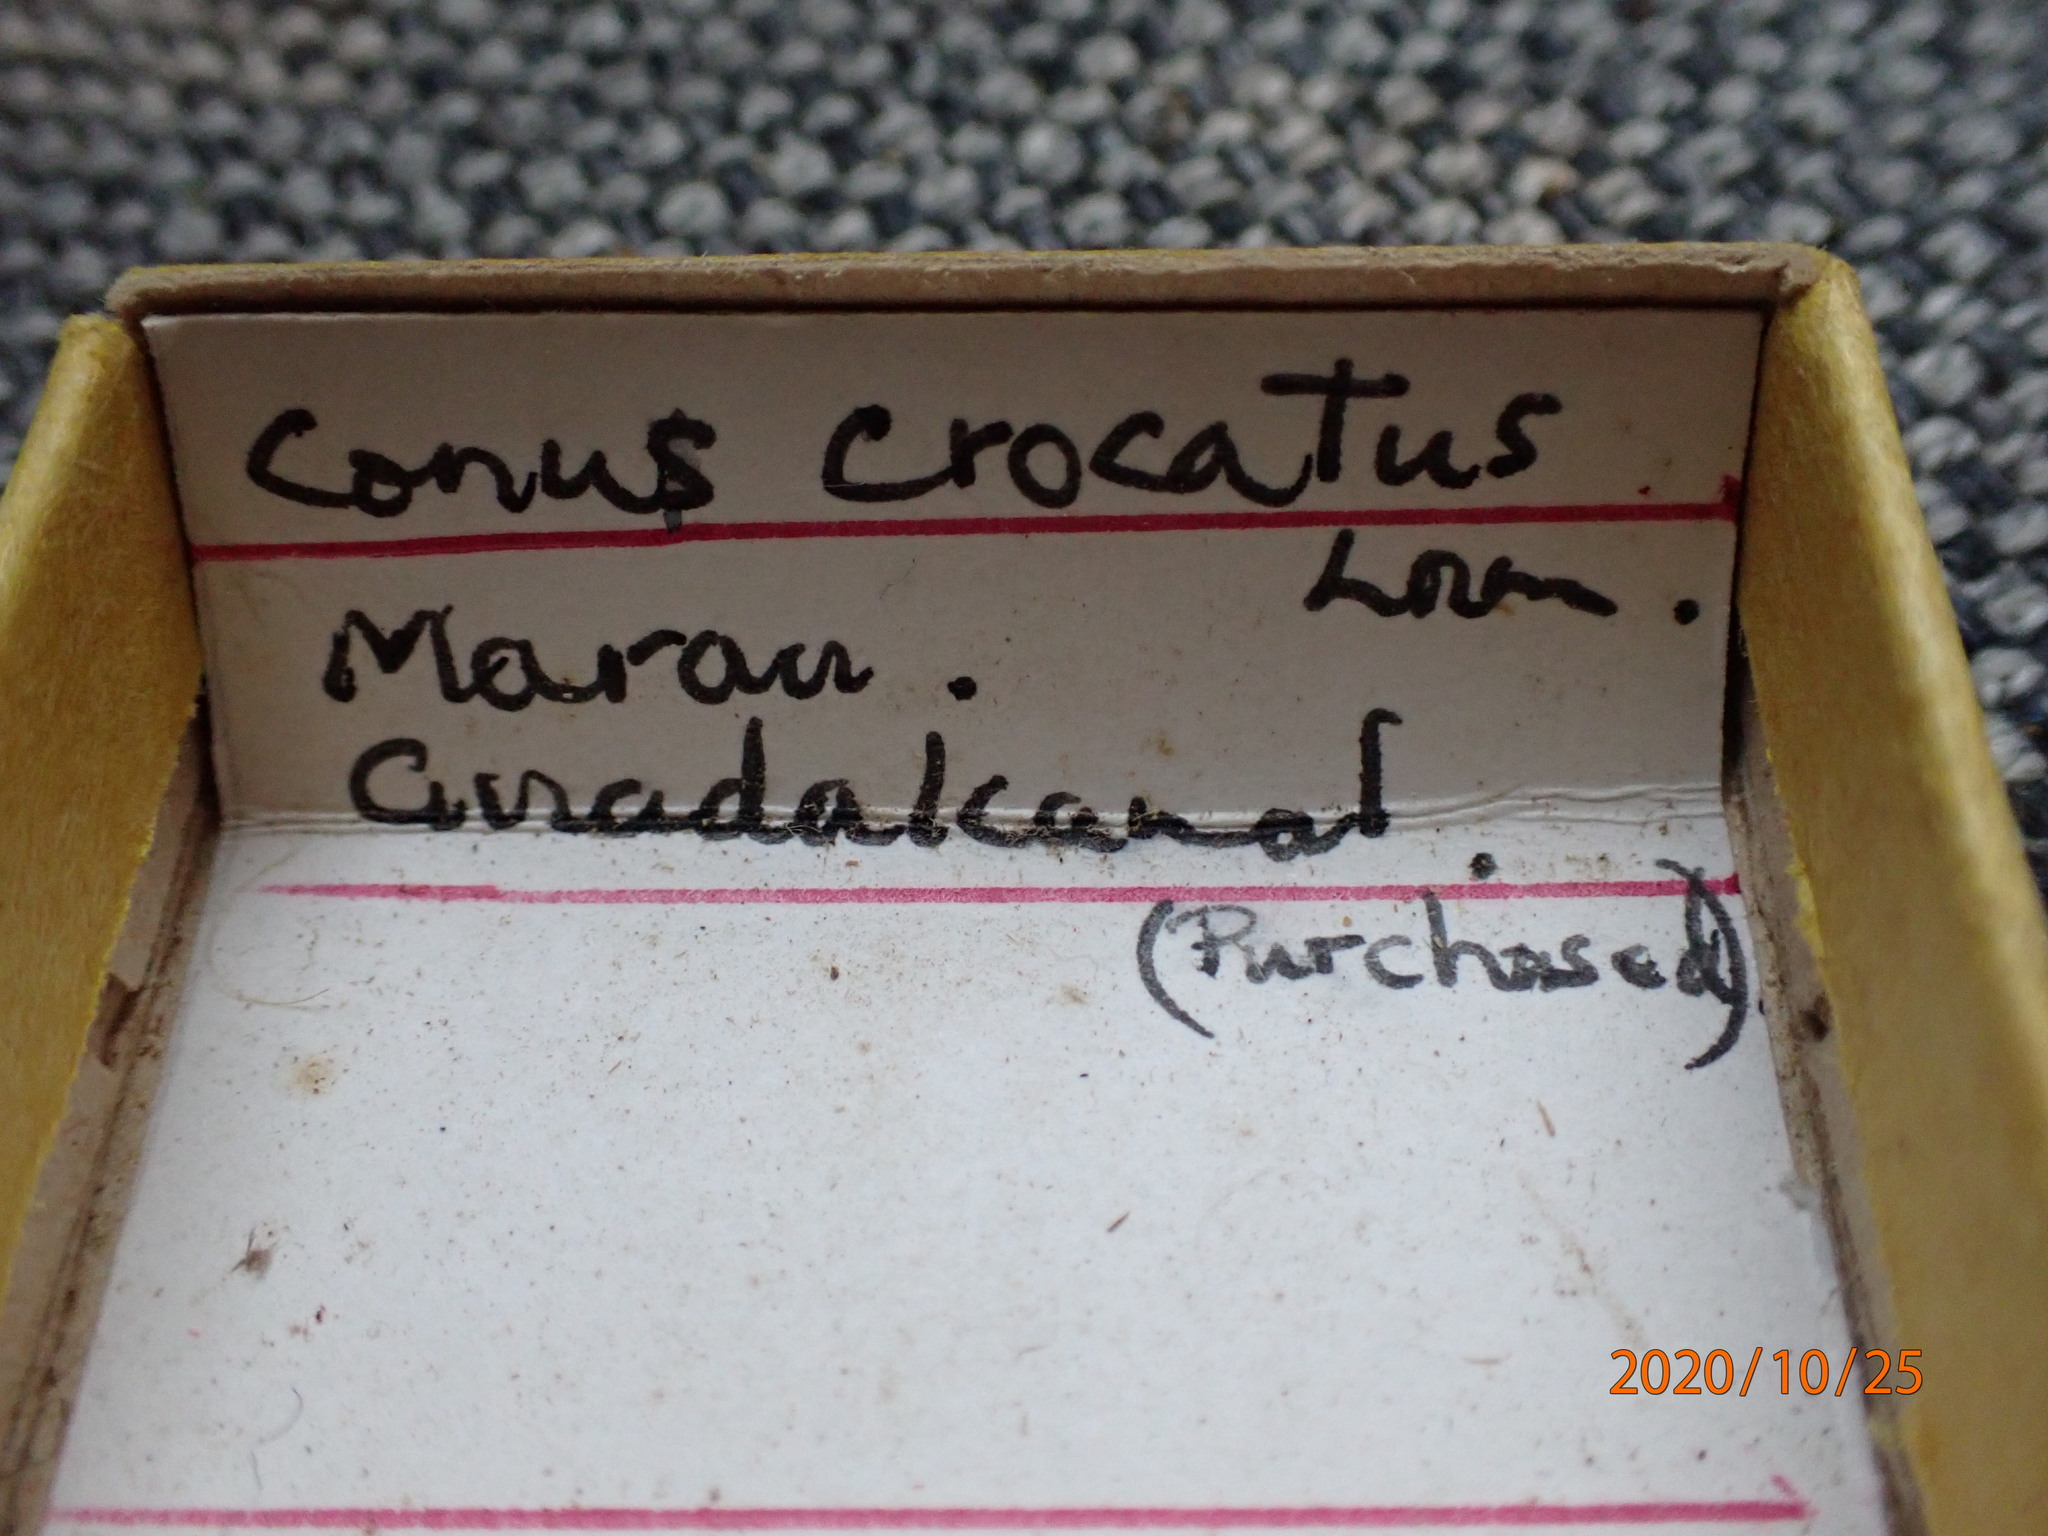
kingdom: Animalia
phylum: Mollusca
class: Gastropoda
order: Neogastropoda
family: Conidae
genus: Conus
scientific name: Conus crocatus
